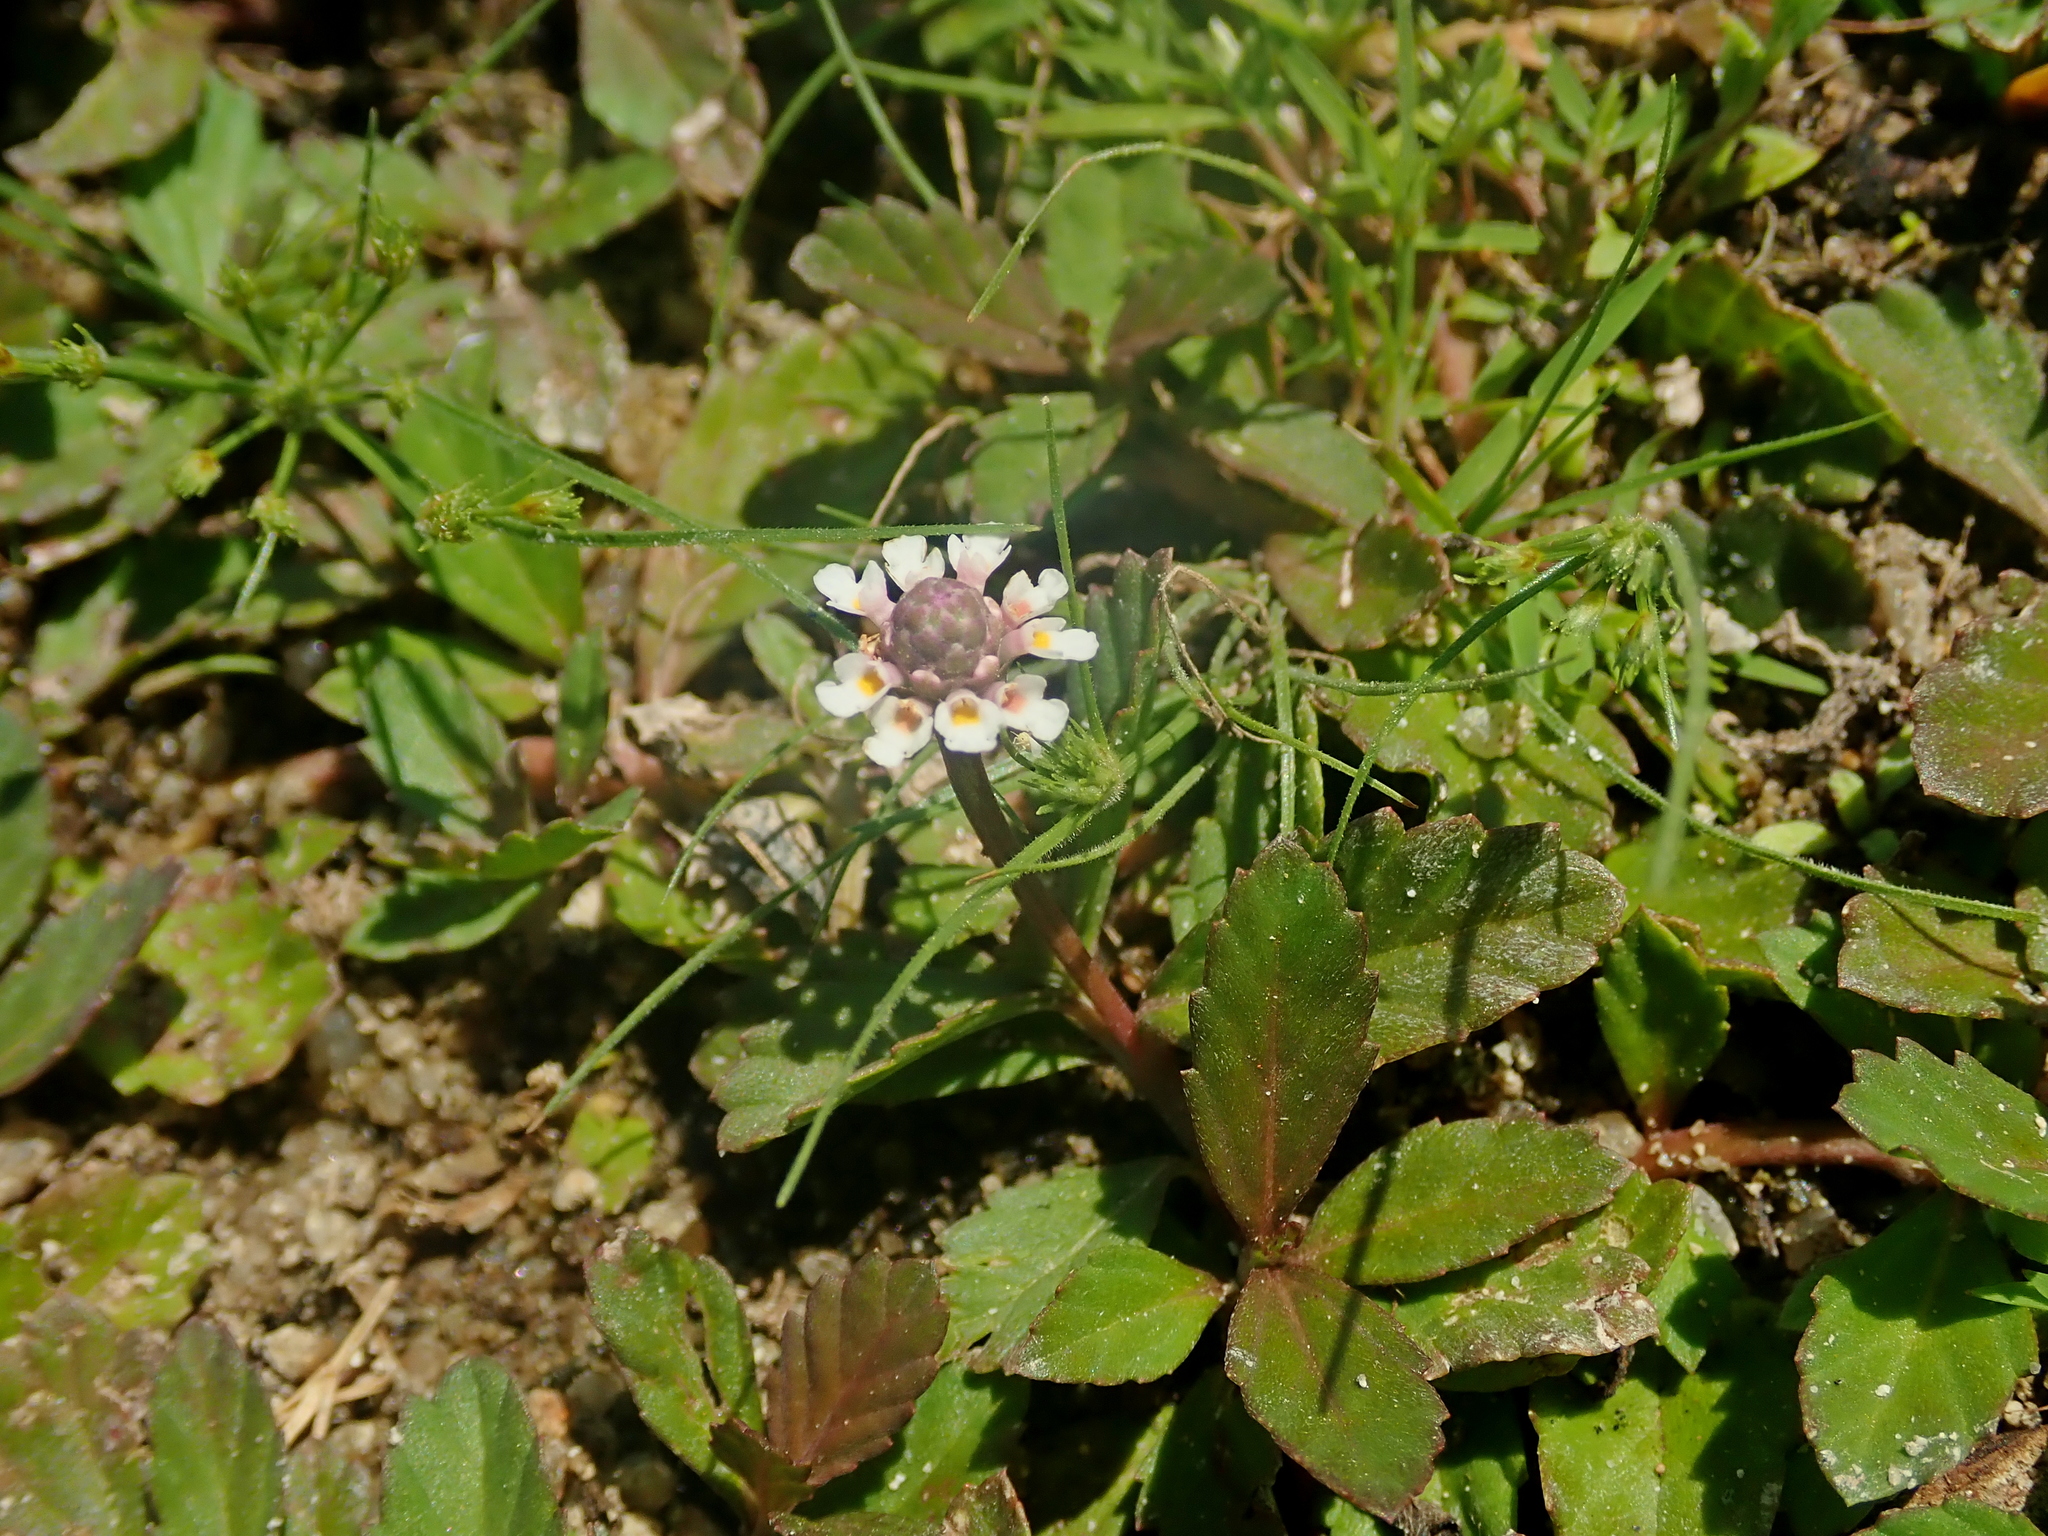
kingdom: Plantae
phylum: Tracheophyta
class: Magnoliopsida
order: Lamiales
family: Verbenaceae
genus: Phyla
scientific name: Phyla nodiflora
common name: Frogfruit
